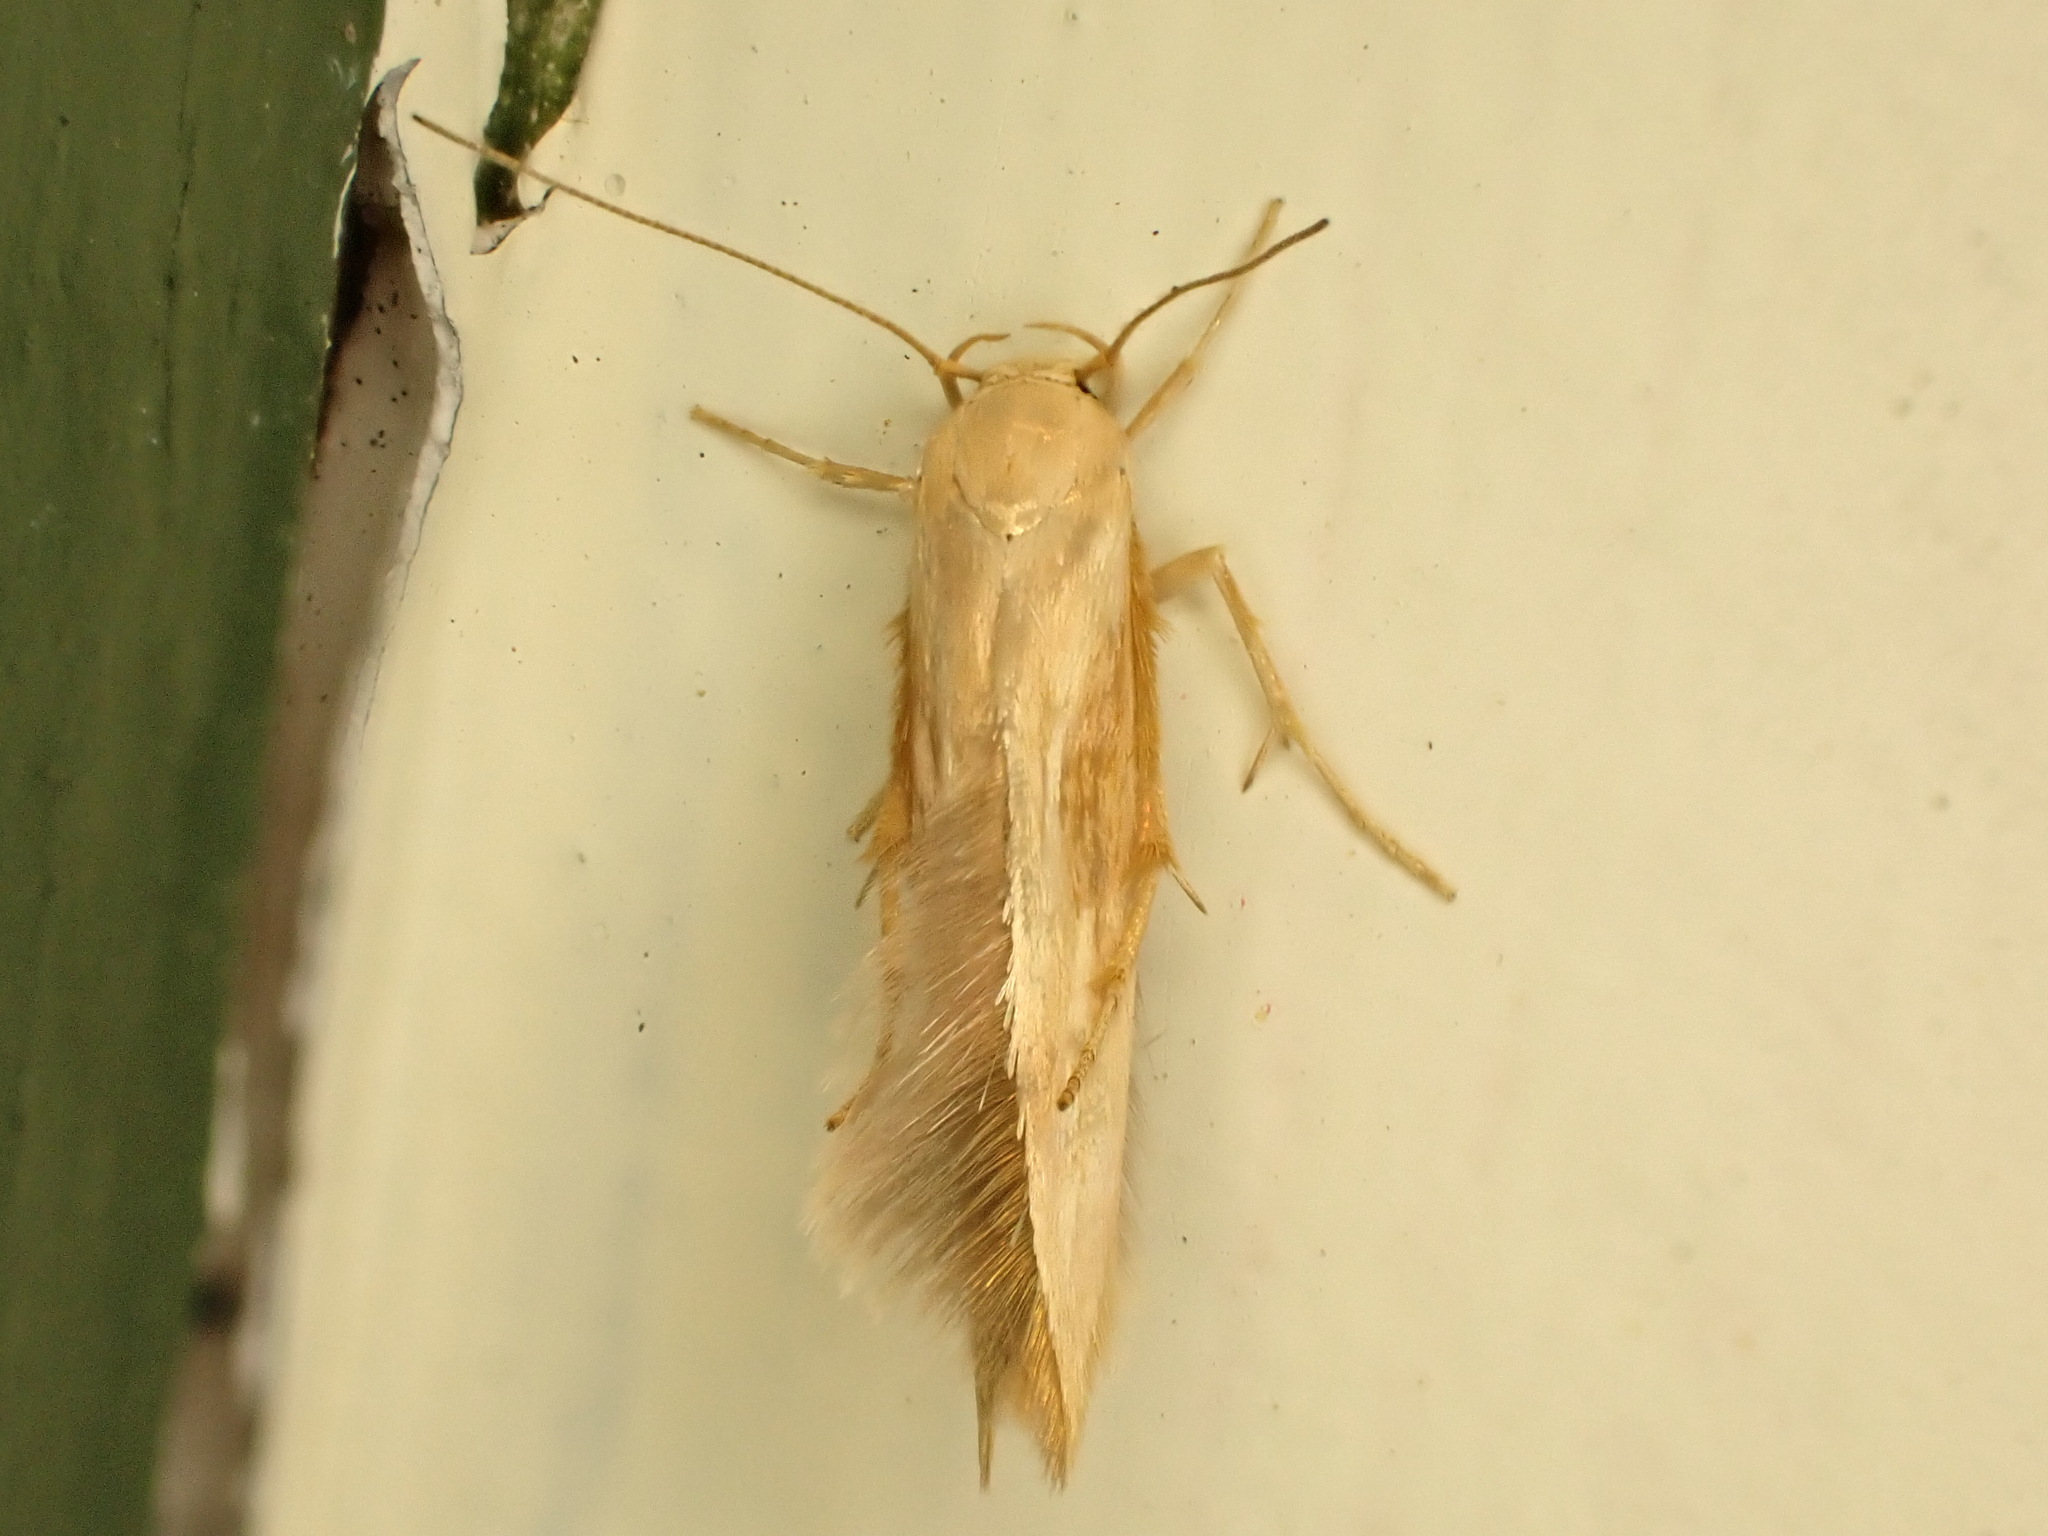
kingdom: Animalia
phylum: Arthropoda
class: Insecta
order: Lepidoptera
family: Stathmopodidae
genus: Stathmopoda
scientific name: Stathmopoda skelloni
